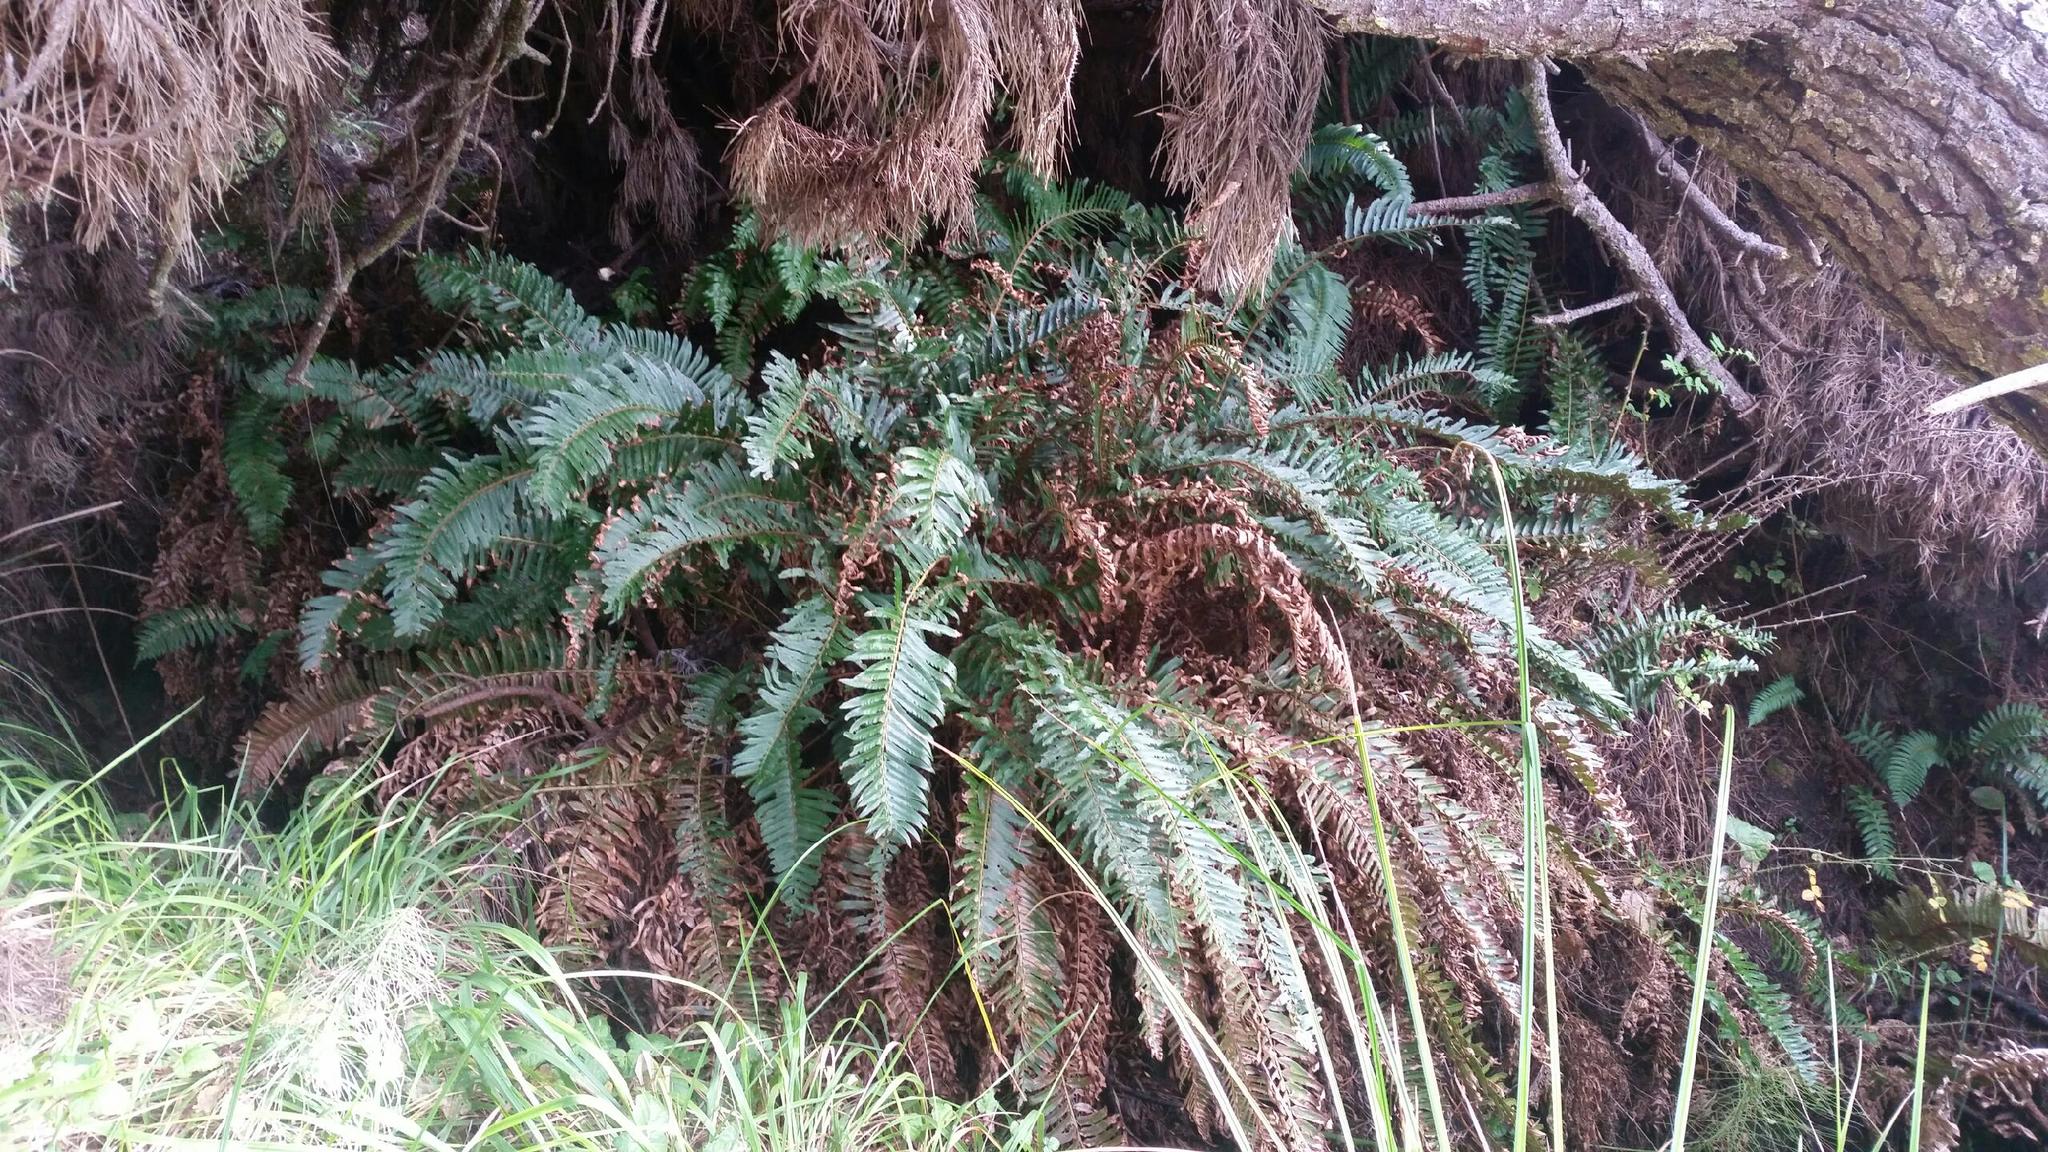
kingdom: Plantae
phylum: Tracheophyta
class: Polypodiopsida
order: Polypodiales
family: Dryopteridaceae
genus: Polystichum
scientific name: Polystichum munitum
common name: Western sword-fern
